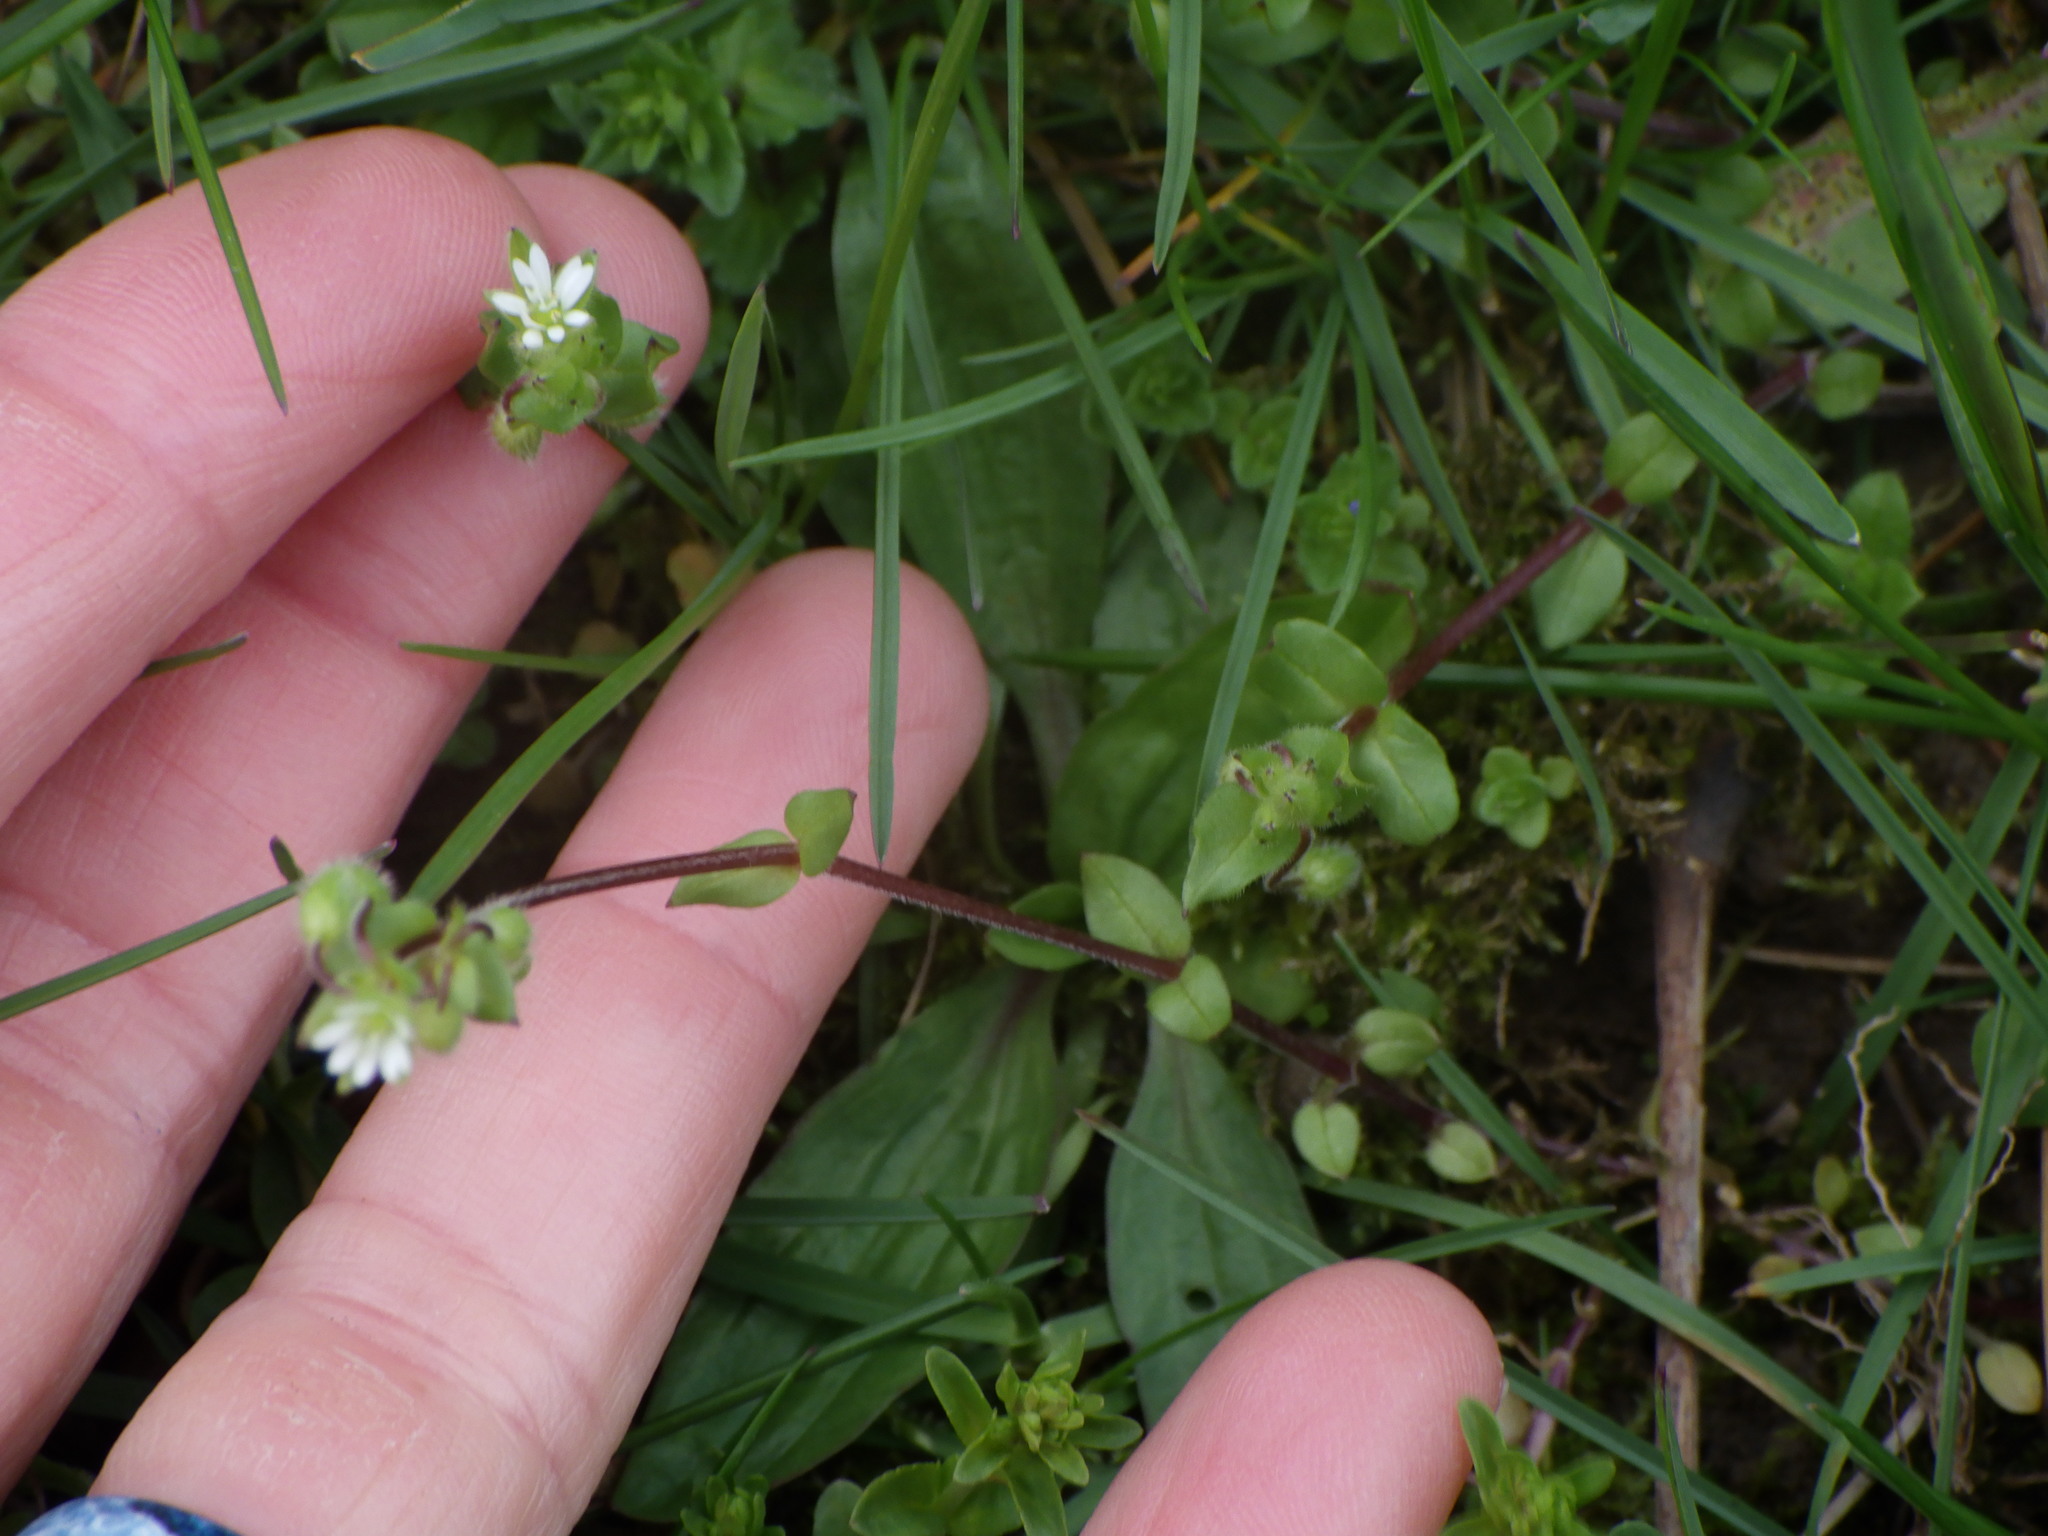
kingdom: Plantae
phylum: Tracheophyta
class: Magnoliopsida
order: Caryophyllales
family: Caryophyllaceae
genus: Cerastium
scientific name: Cerastium fontanum
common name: Common mouse-ear
